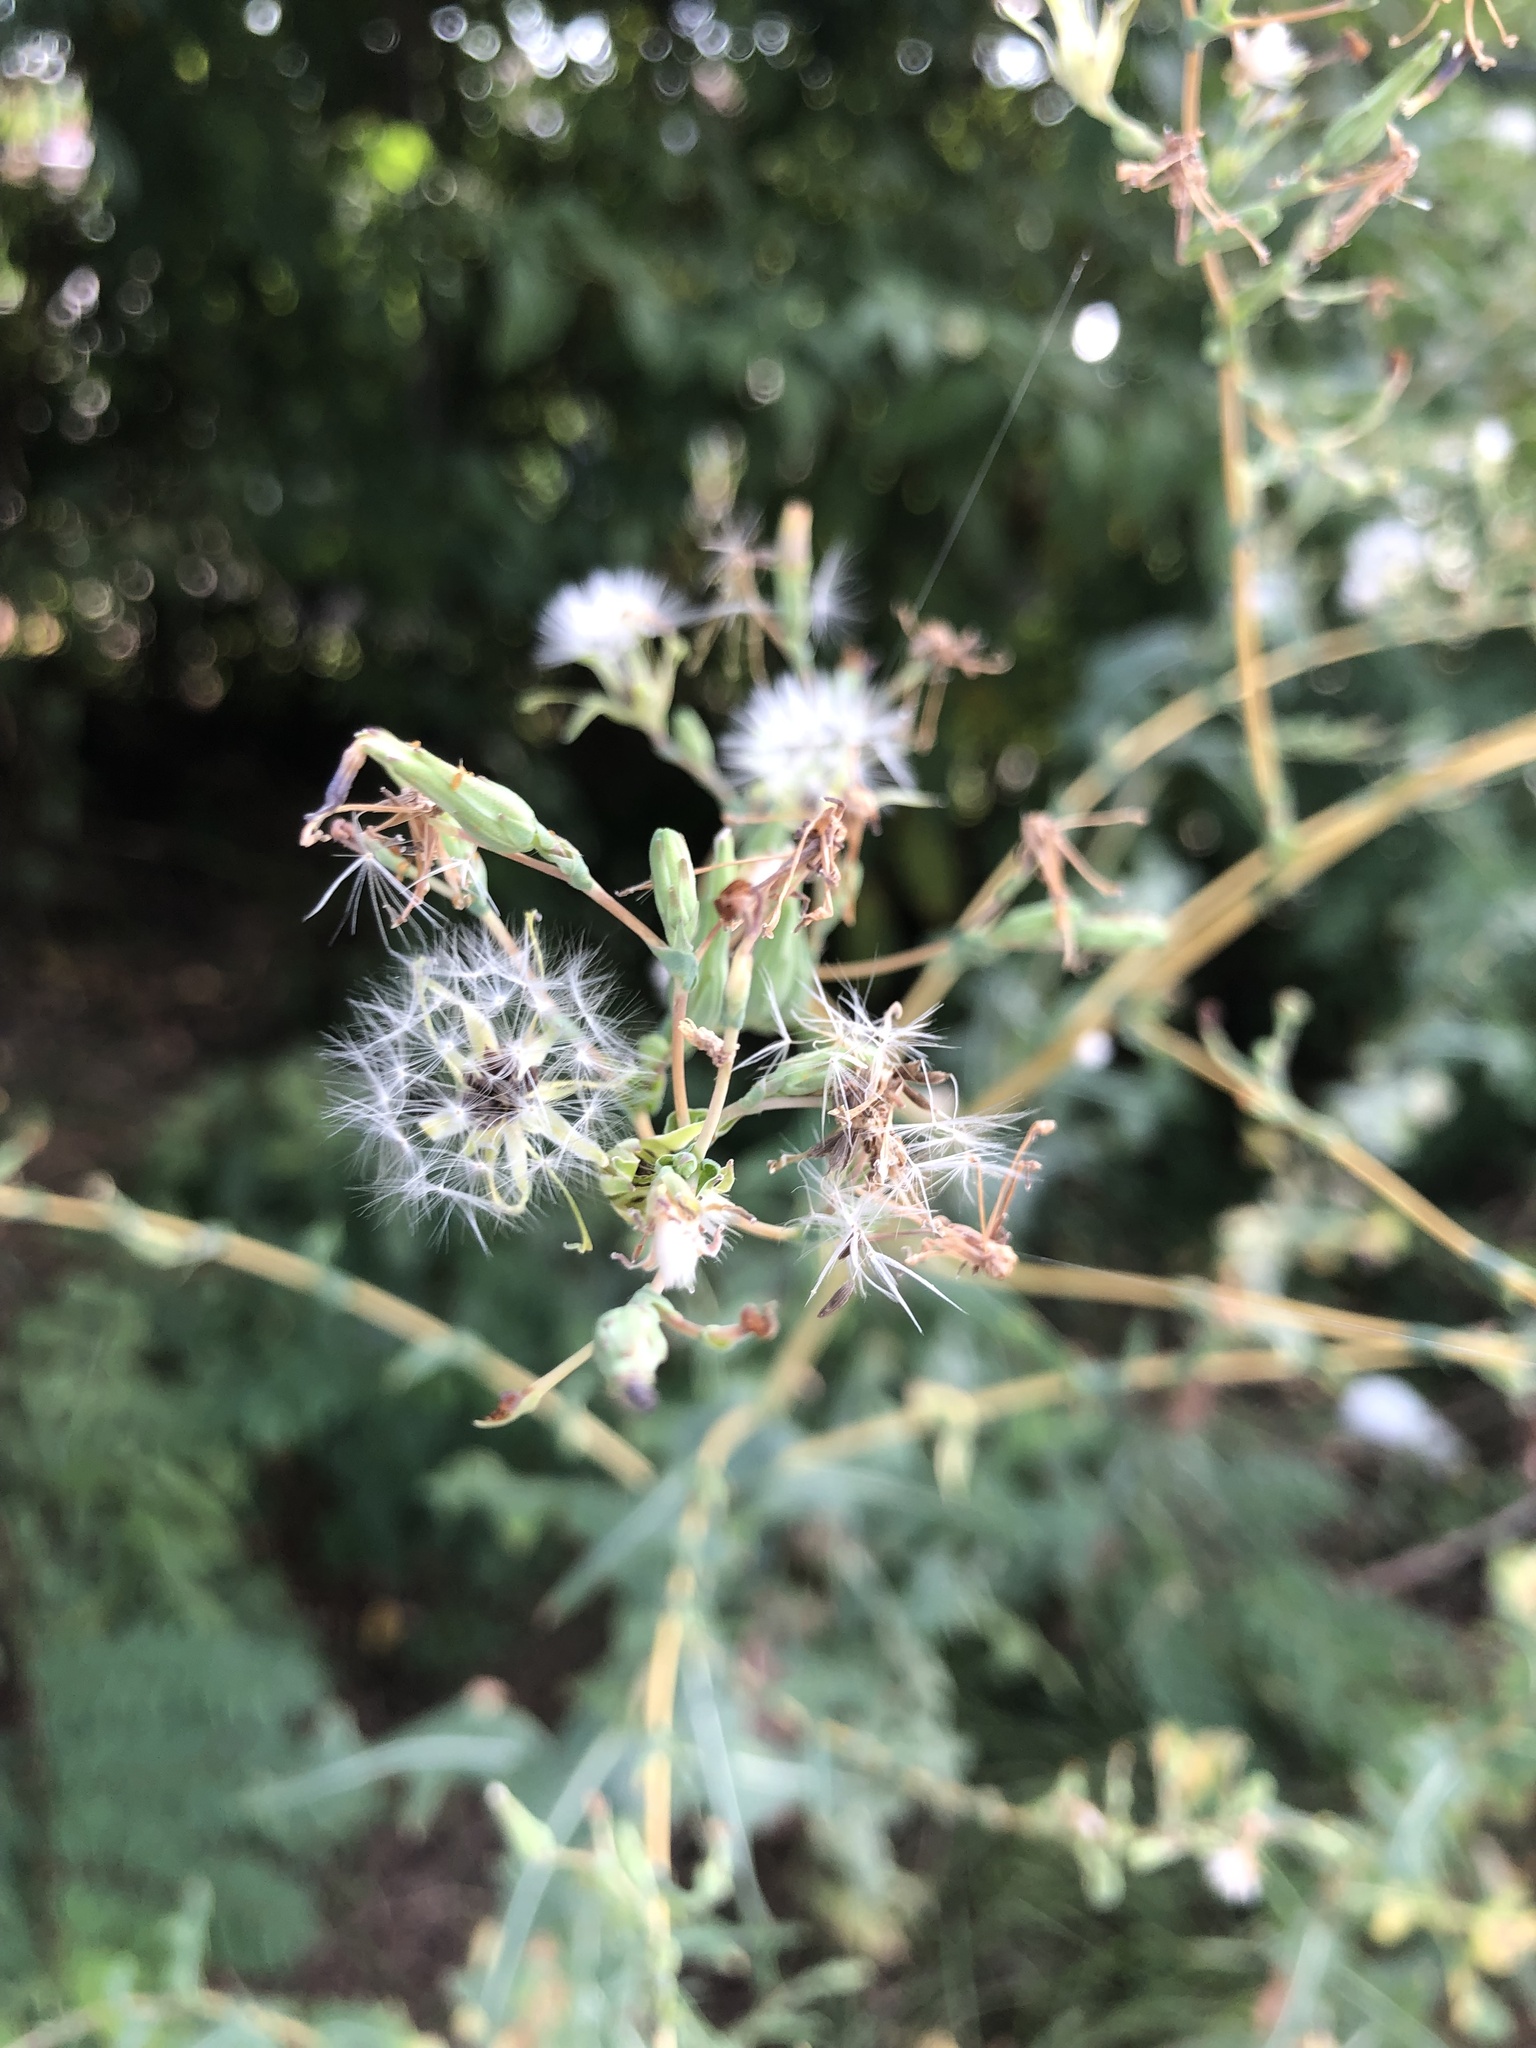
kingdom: Plantae
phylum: Tracheophyta
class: Magnoliopsida
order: Asterales
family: Asteraceae
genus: Lactuca
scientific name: Lactuca serriola
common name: Prickly lettuce
